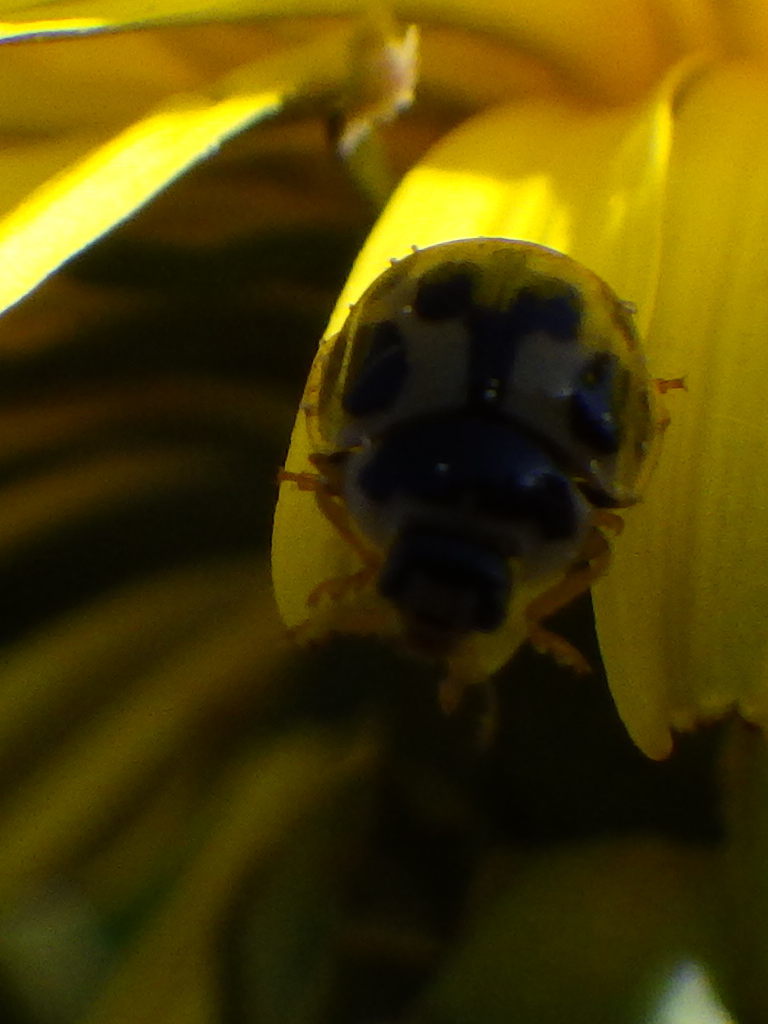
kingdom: Animalia
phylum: Arthropoda
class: Insecta
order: Coleoptera
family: Coccinellidae
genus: Propylaea
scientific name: Propylaea quatuordecimpunctata
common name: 14-spotted ladybird beetle
